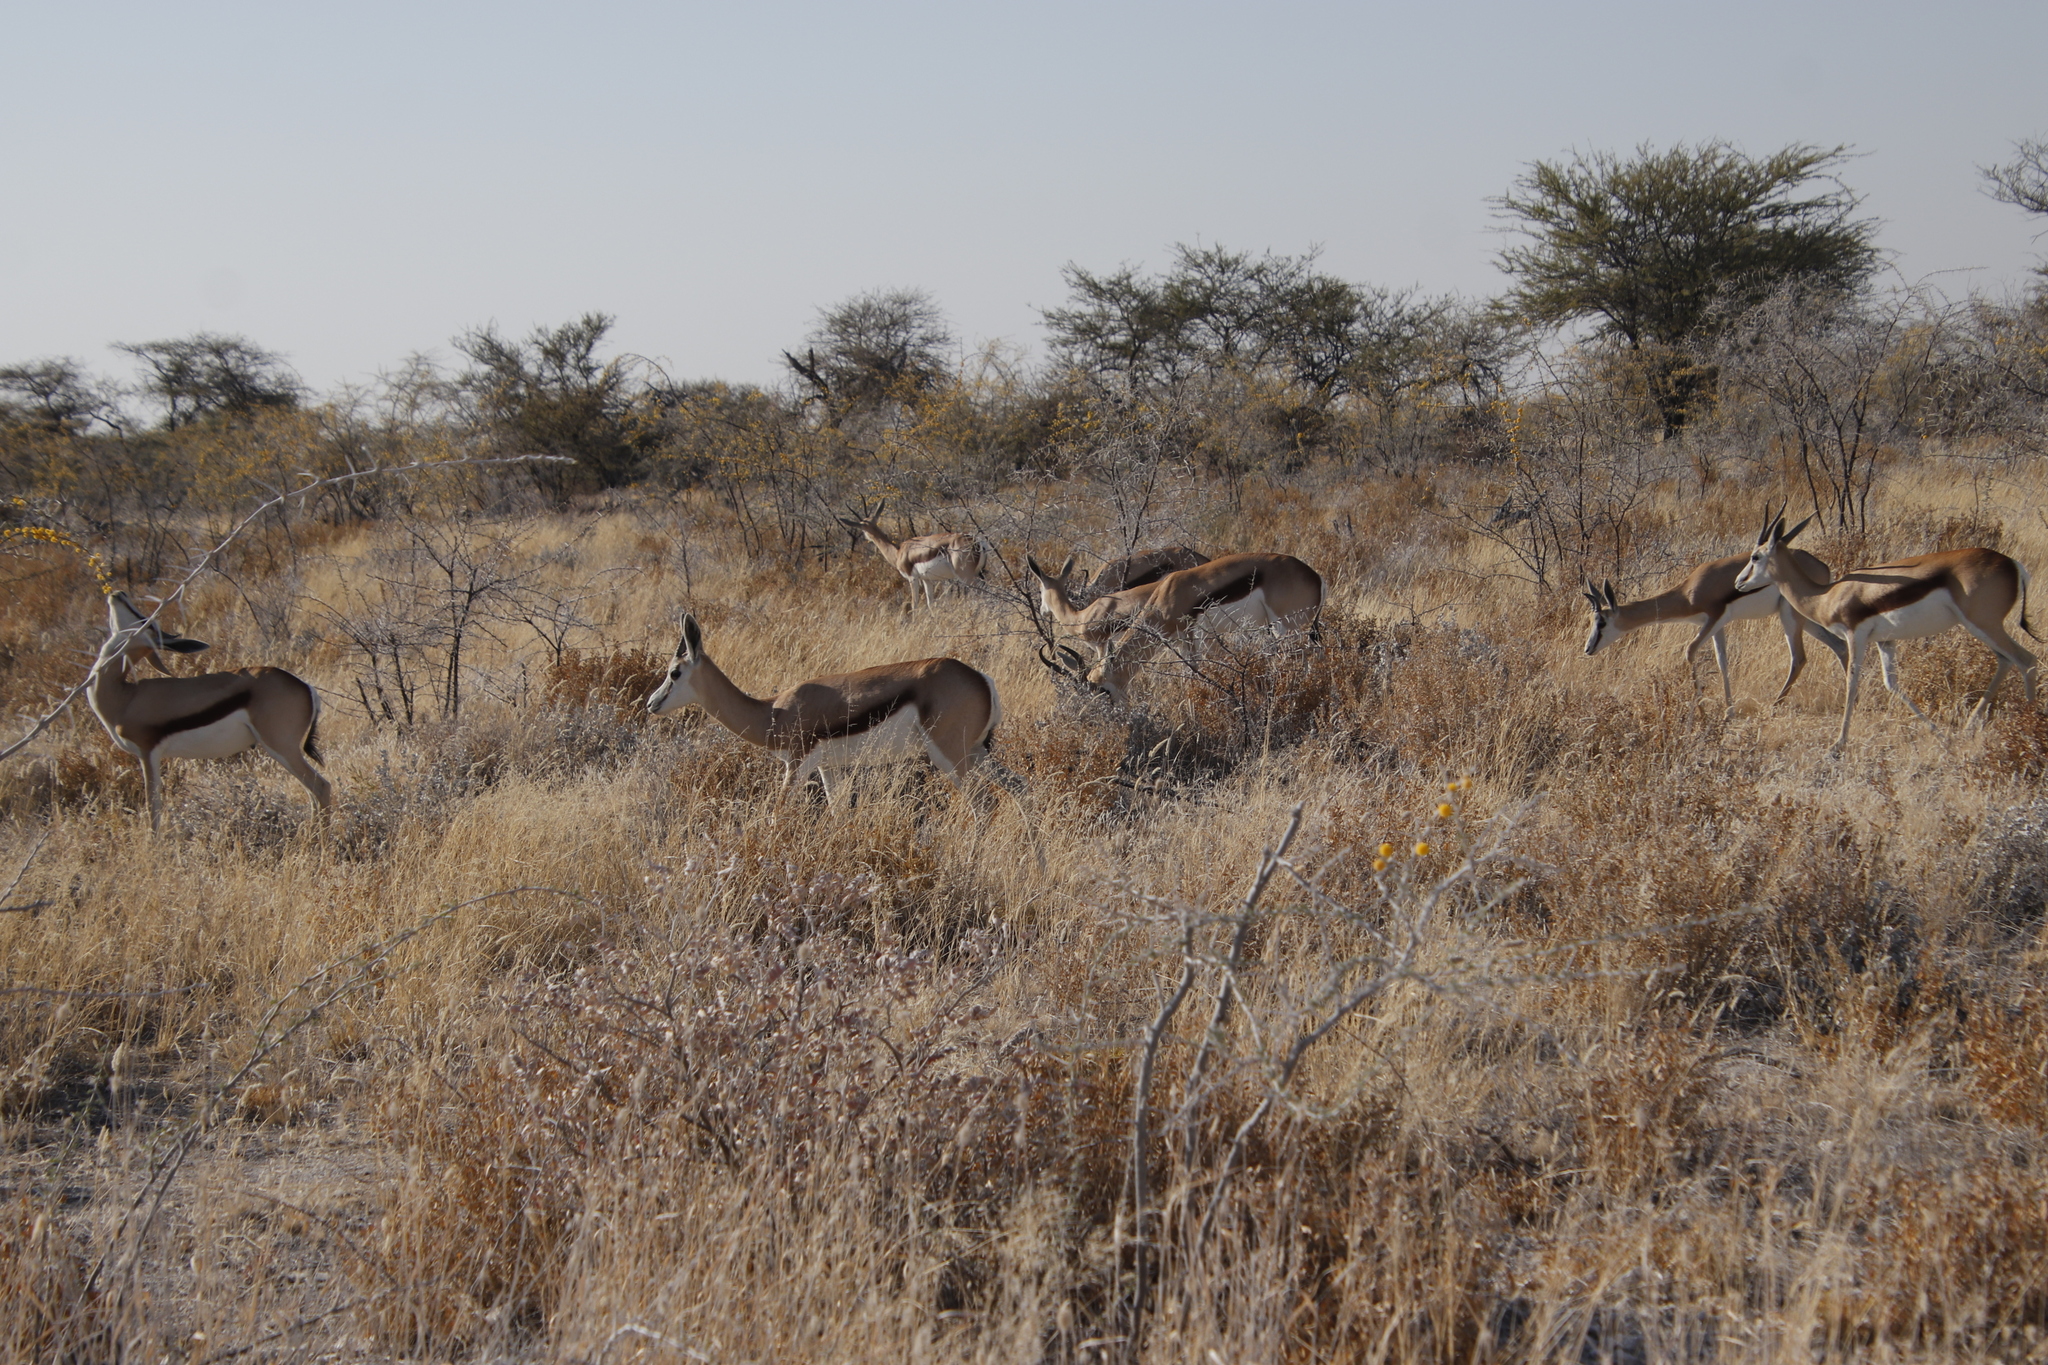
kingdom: Animalia
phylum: Chordata
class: Mammalia
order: Artiodactyla
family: Bovidae
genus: Antidorcas
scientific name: Antidorcas marsupialis
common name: Springbok
